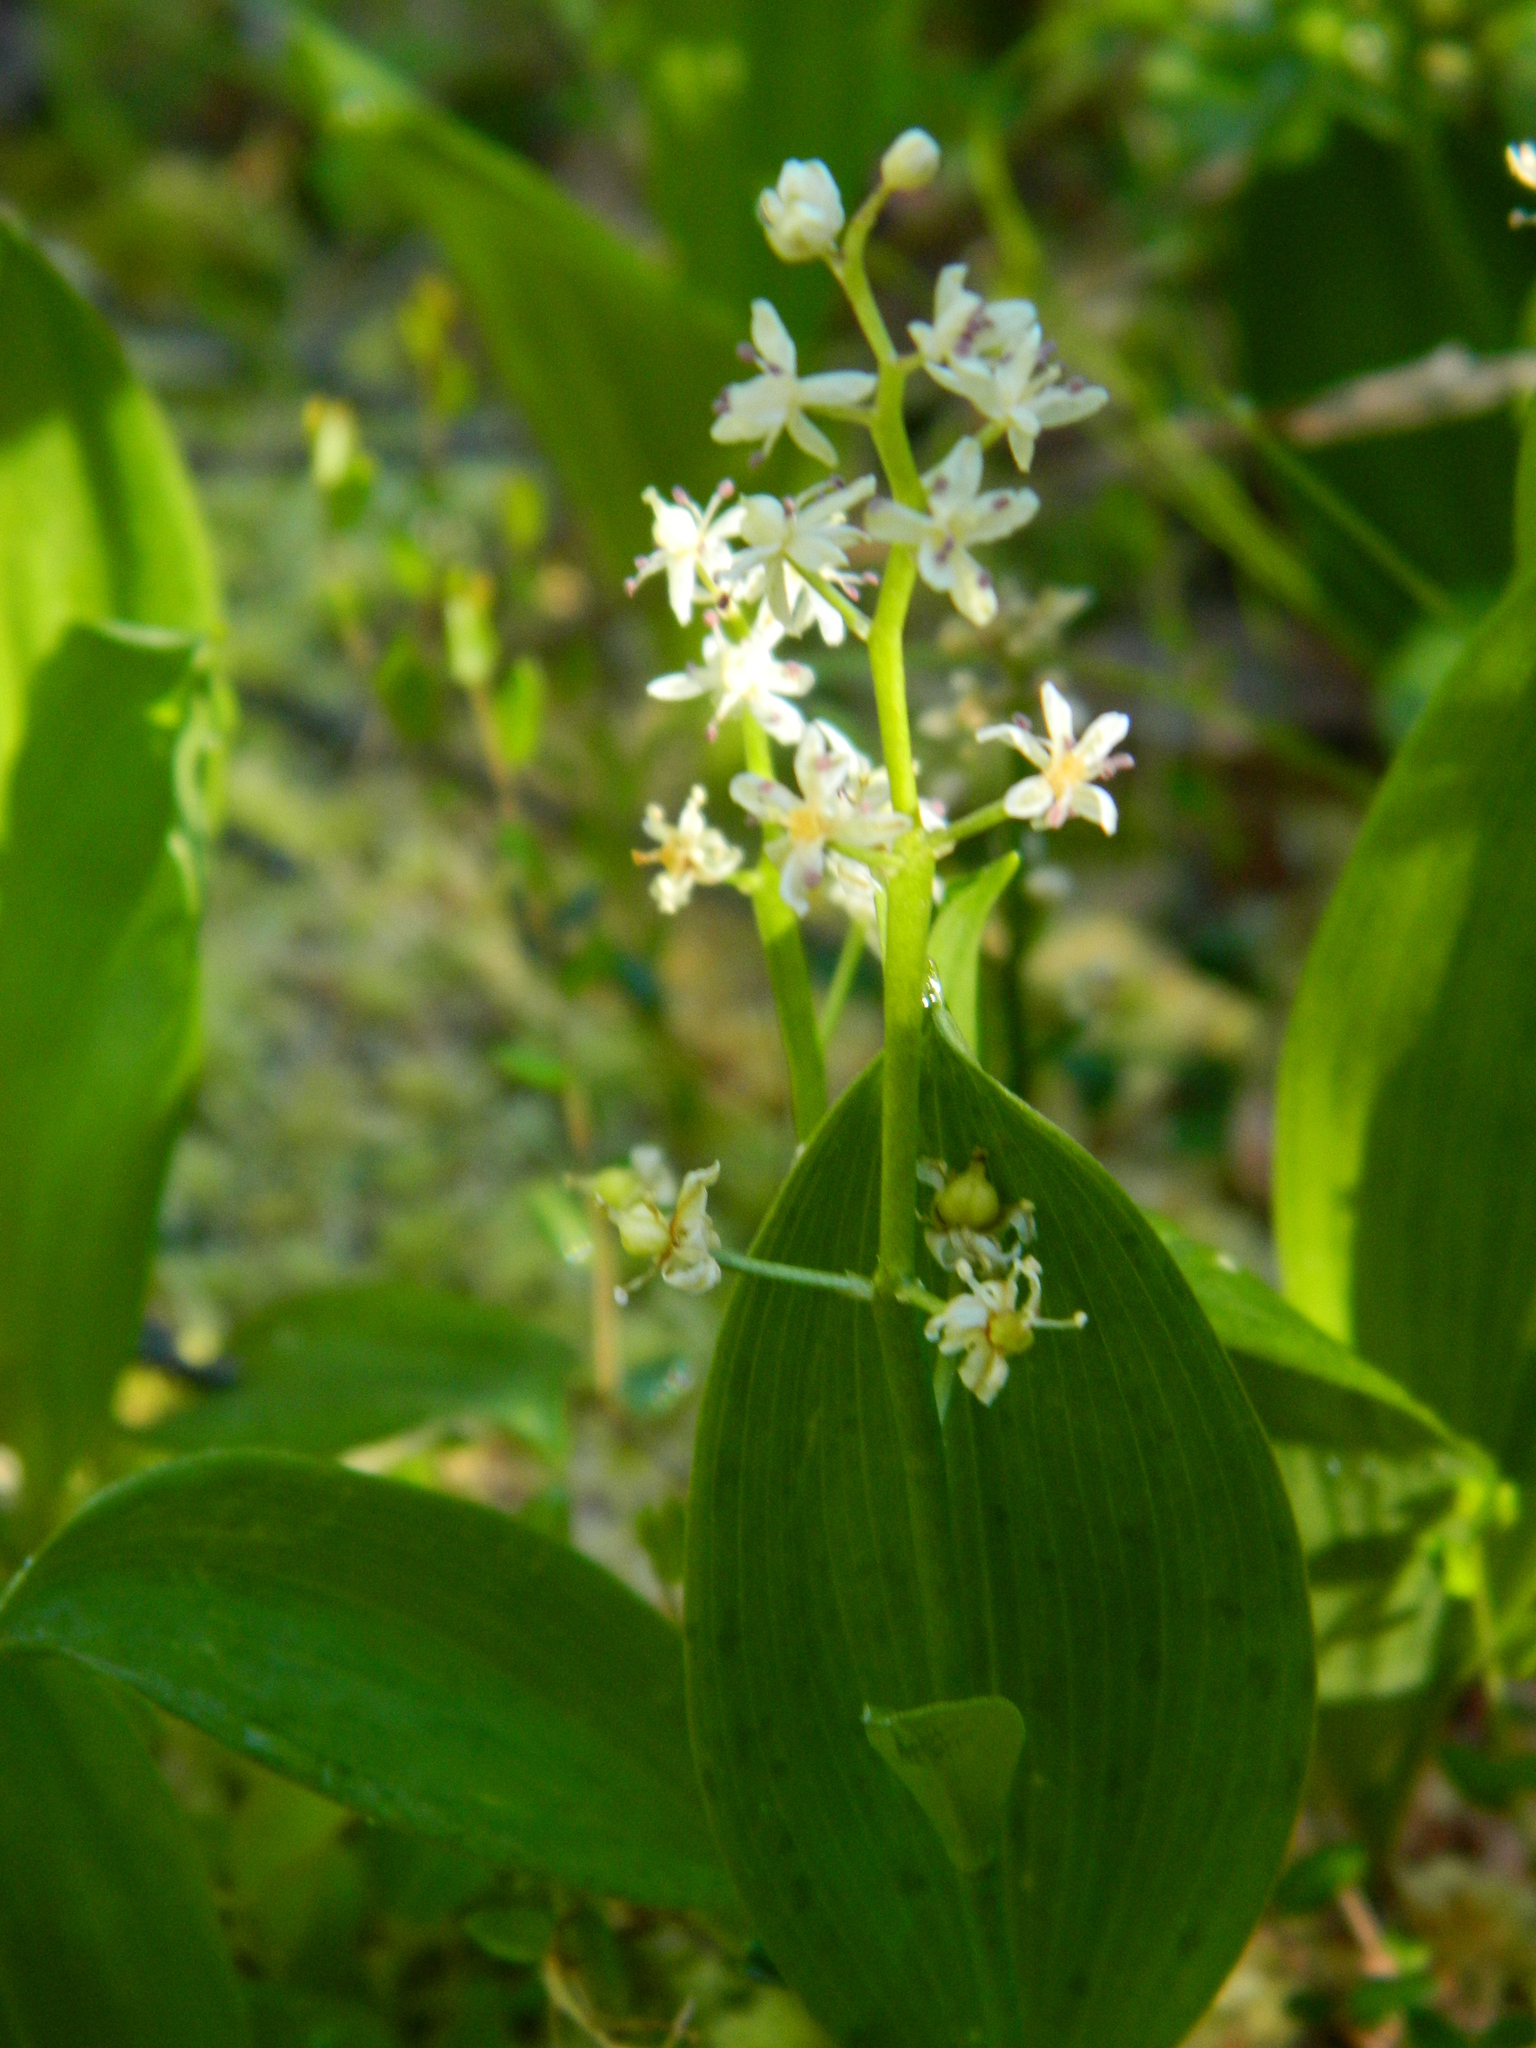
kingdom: Plantae
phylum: Tracheophyta
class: Liliopsida
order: Asparagales
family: Asparagaceae
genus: Maianthemum
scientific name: Maianthemum trifolium
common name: Swamp false solomon's seal
